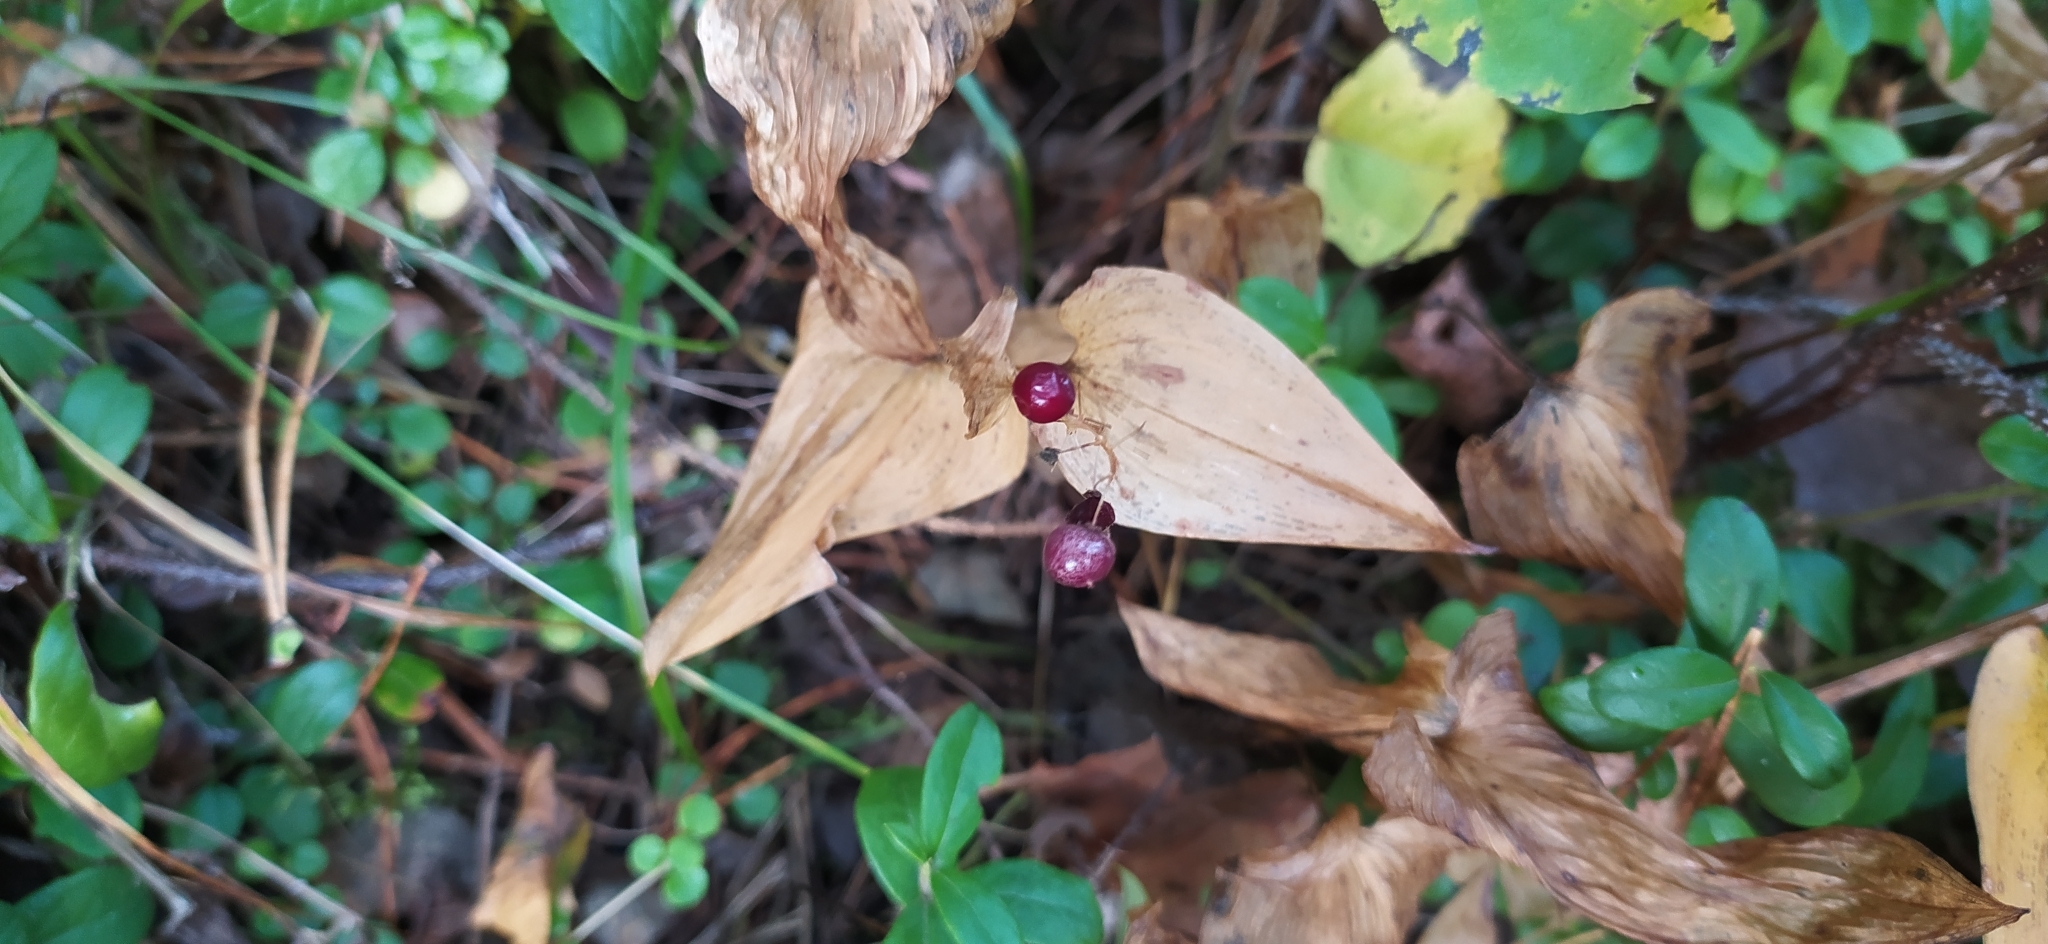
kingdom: Plantae
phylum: Tracheophyta
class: Liliopsida
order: Asparagales
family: Asparagaceae
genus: Maianthemum
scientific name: Maianthemum bifolium
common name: May lily
